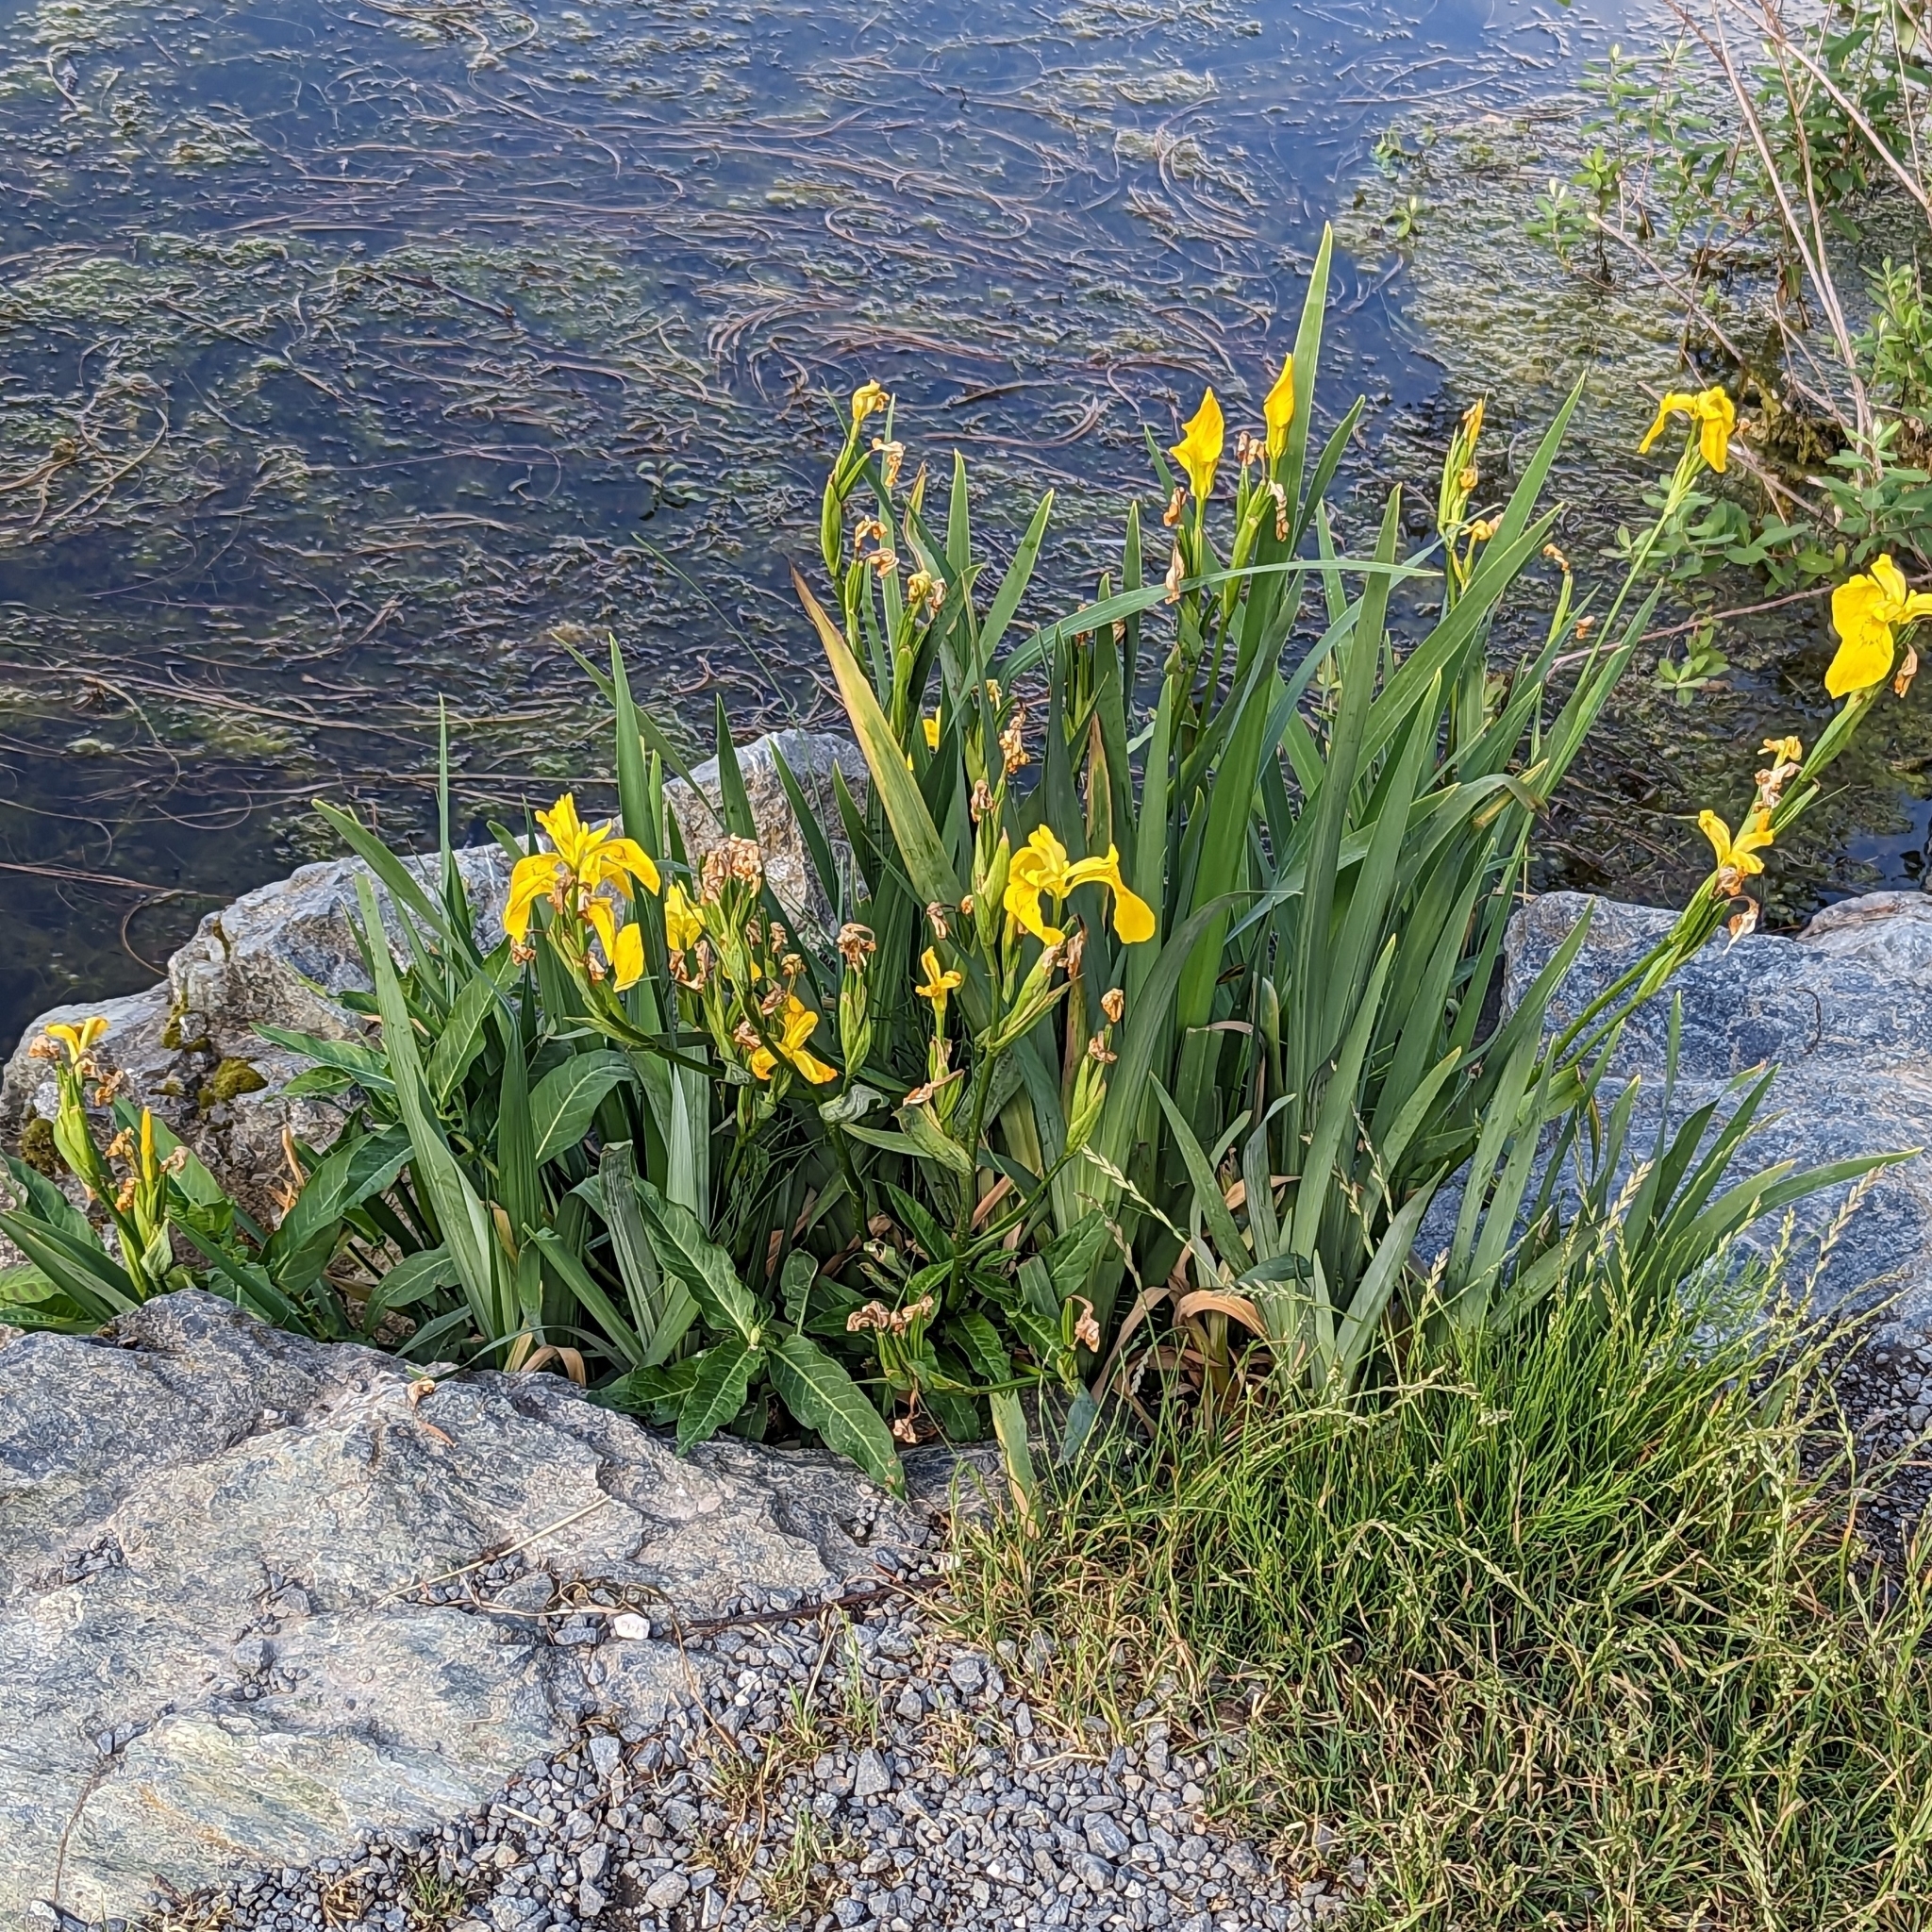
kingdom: Plantae
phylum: Tracheophyta
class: Liliopsida
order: Asparagales
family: Iridaceae
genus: Iris
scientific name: Iris pseudacorus
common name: Yellow flag
